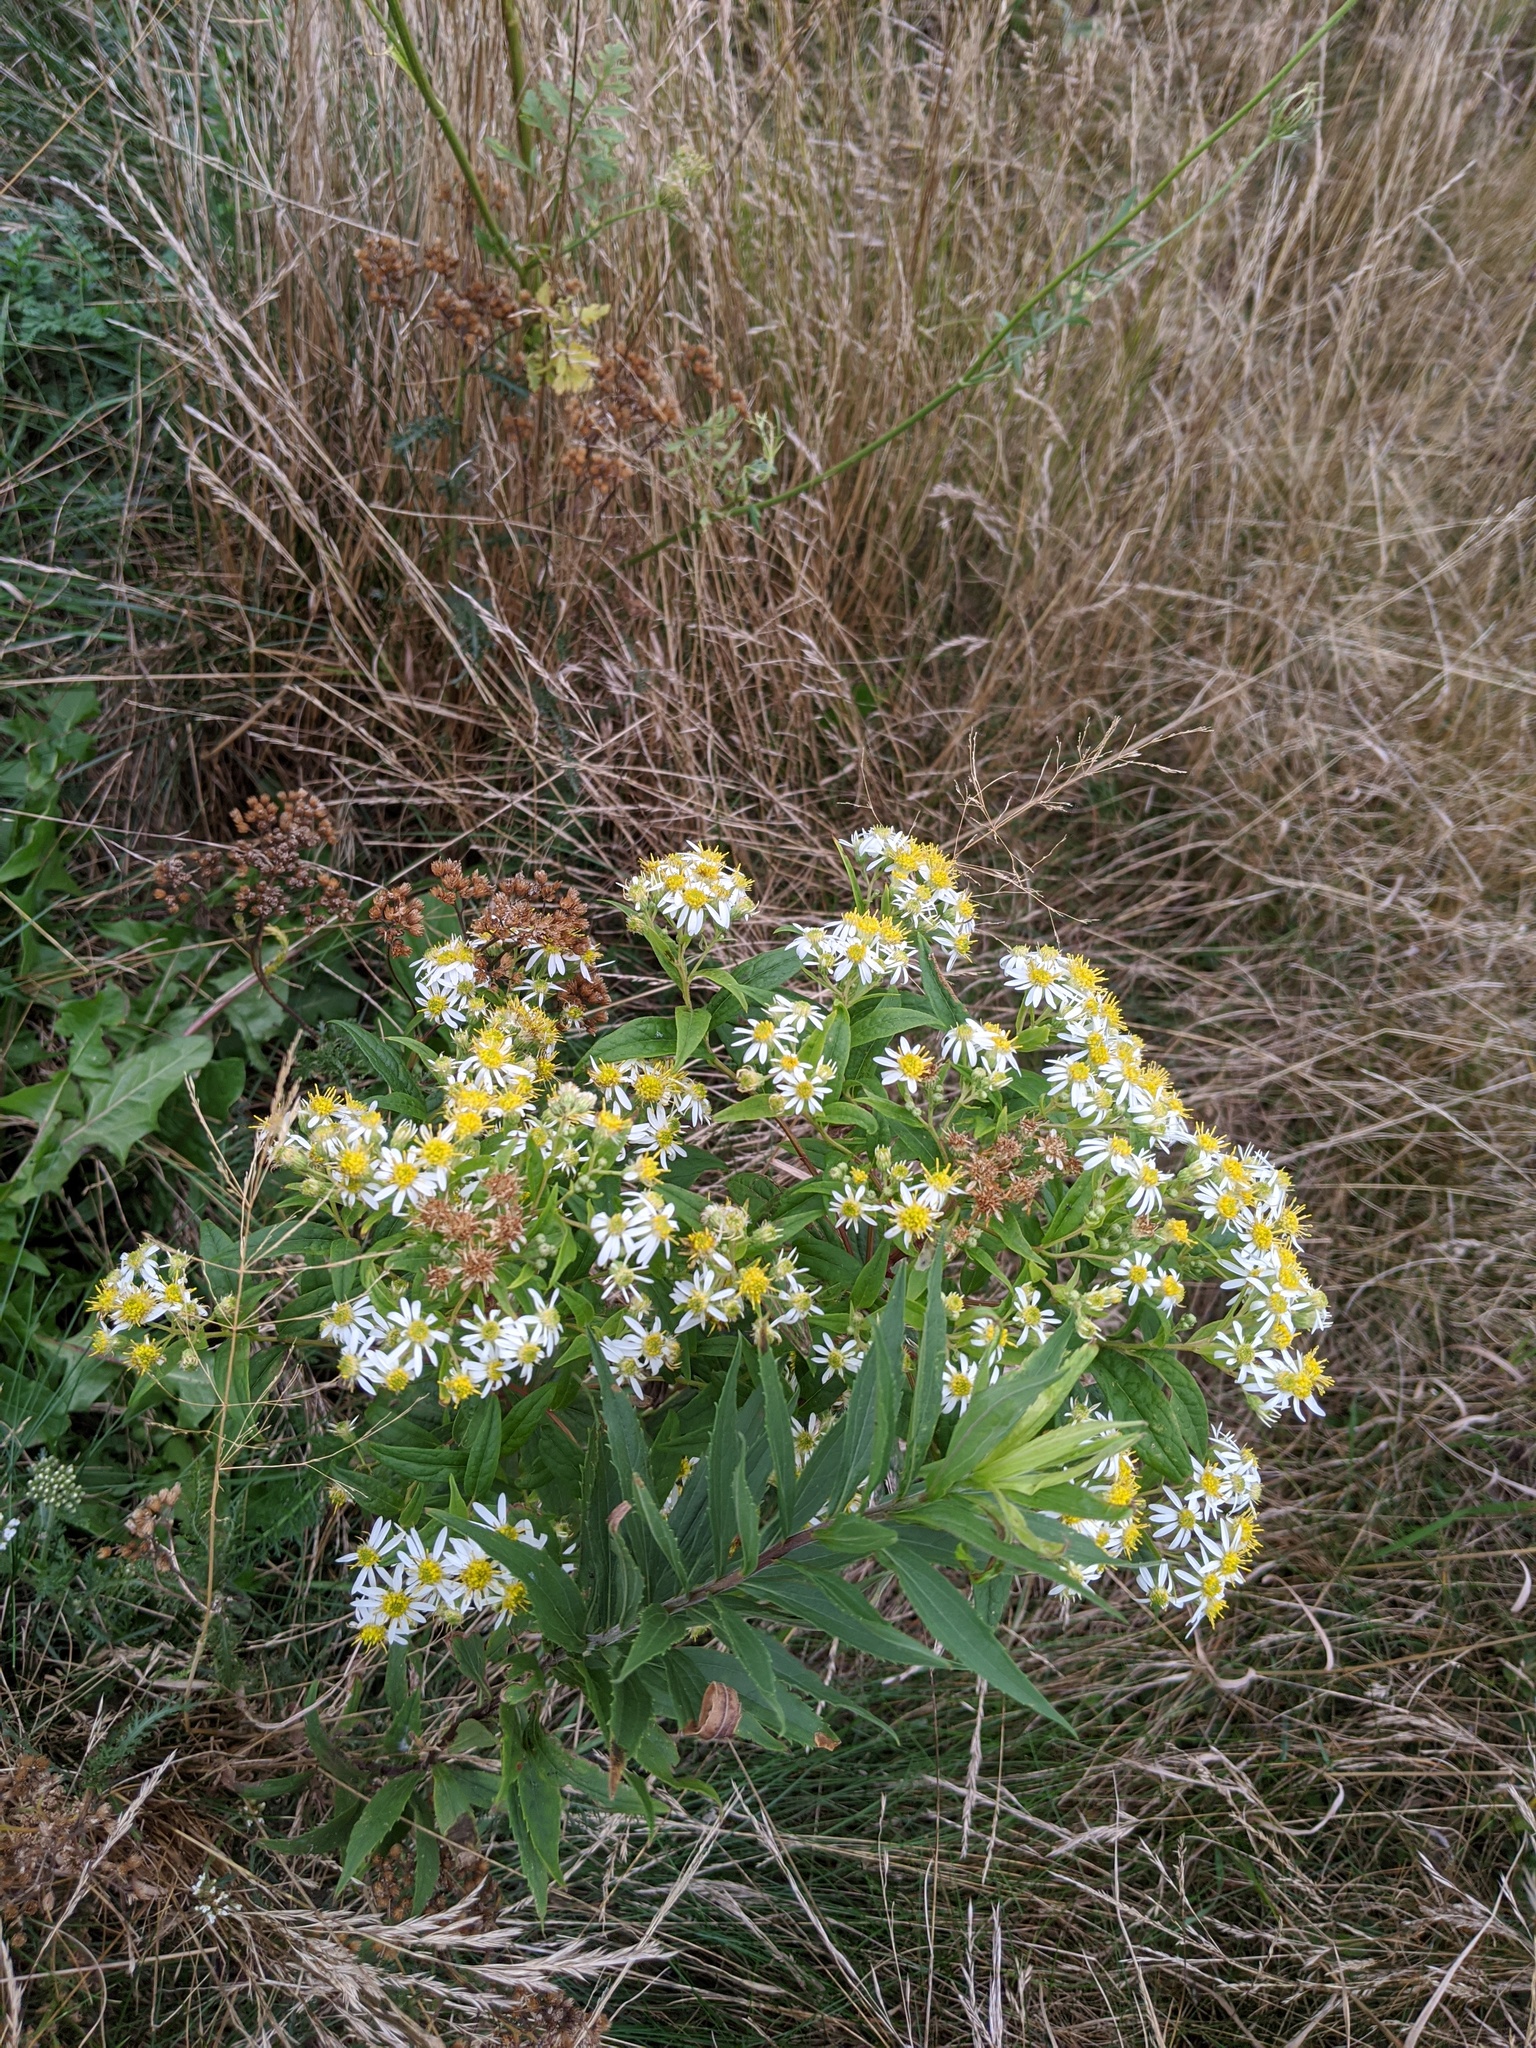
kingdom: Plantae
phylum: Tracheophyta
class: Magnoliopsida
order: Asterales
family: Asteraceae
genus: Doellingeria
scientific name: Doellingeria umbellata
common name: Flat-top white aster
